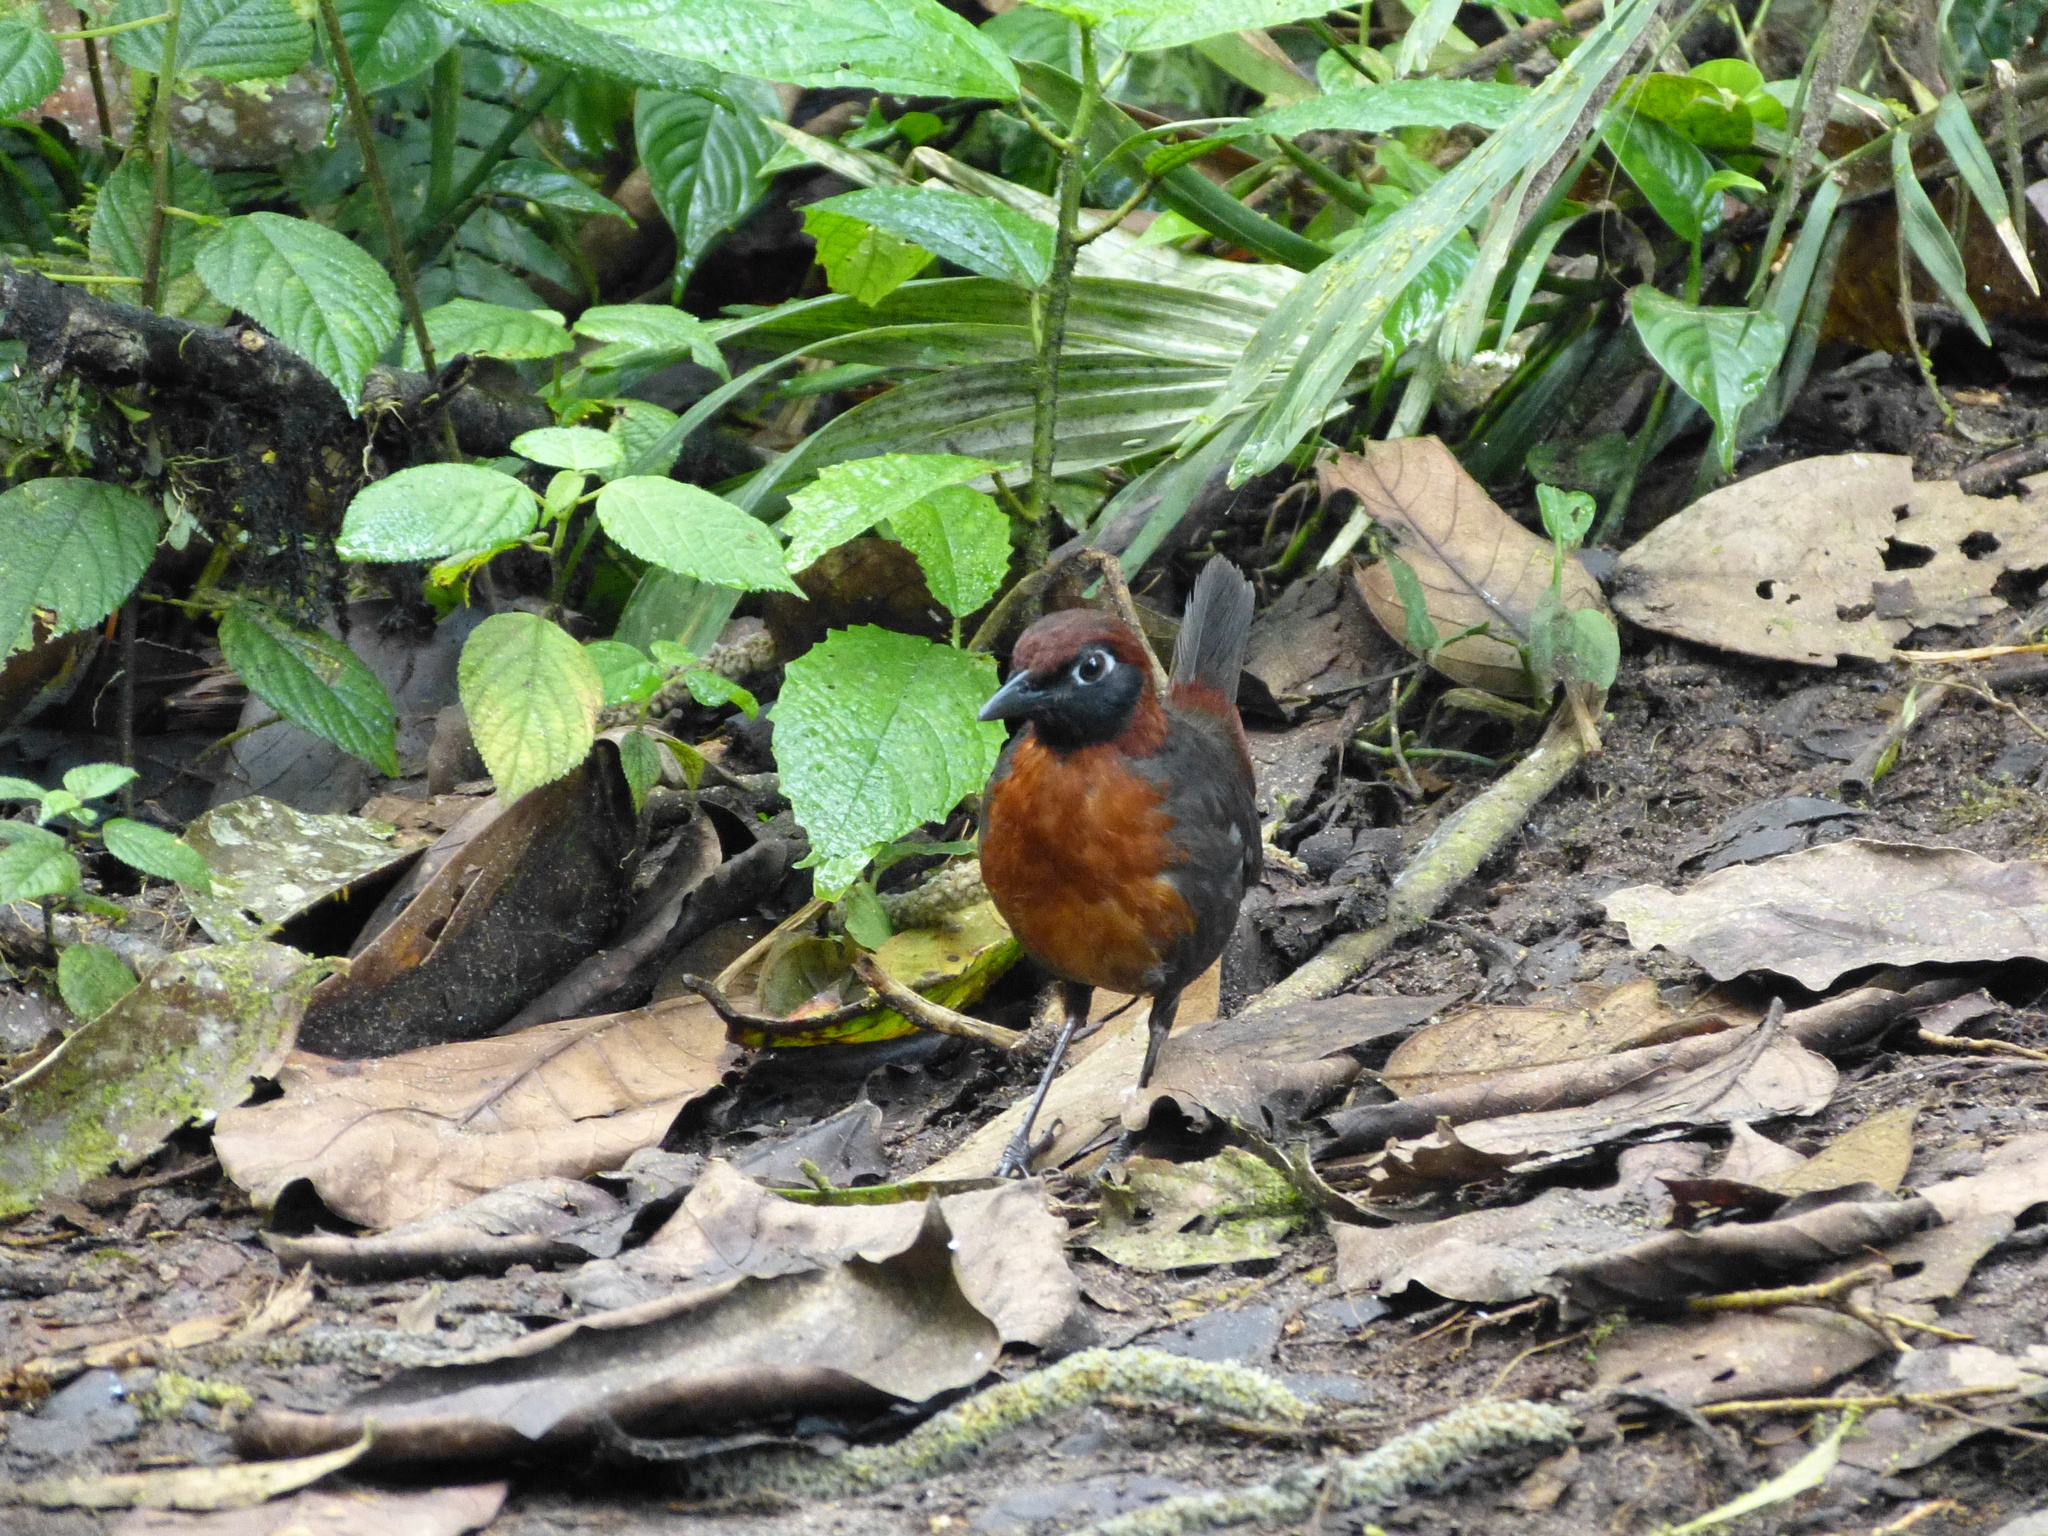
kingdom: Animalia
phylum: Chordata
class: Aves
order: Passeriformes
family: Formicariidae
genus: Formicarius
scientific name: Formicarius rufipectus
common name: Rufous-breasted antthrush
